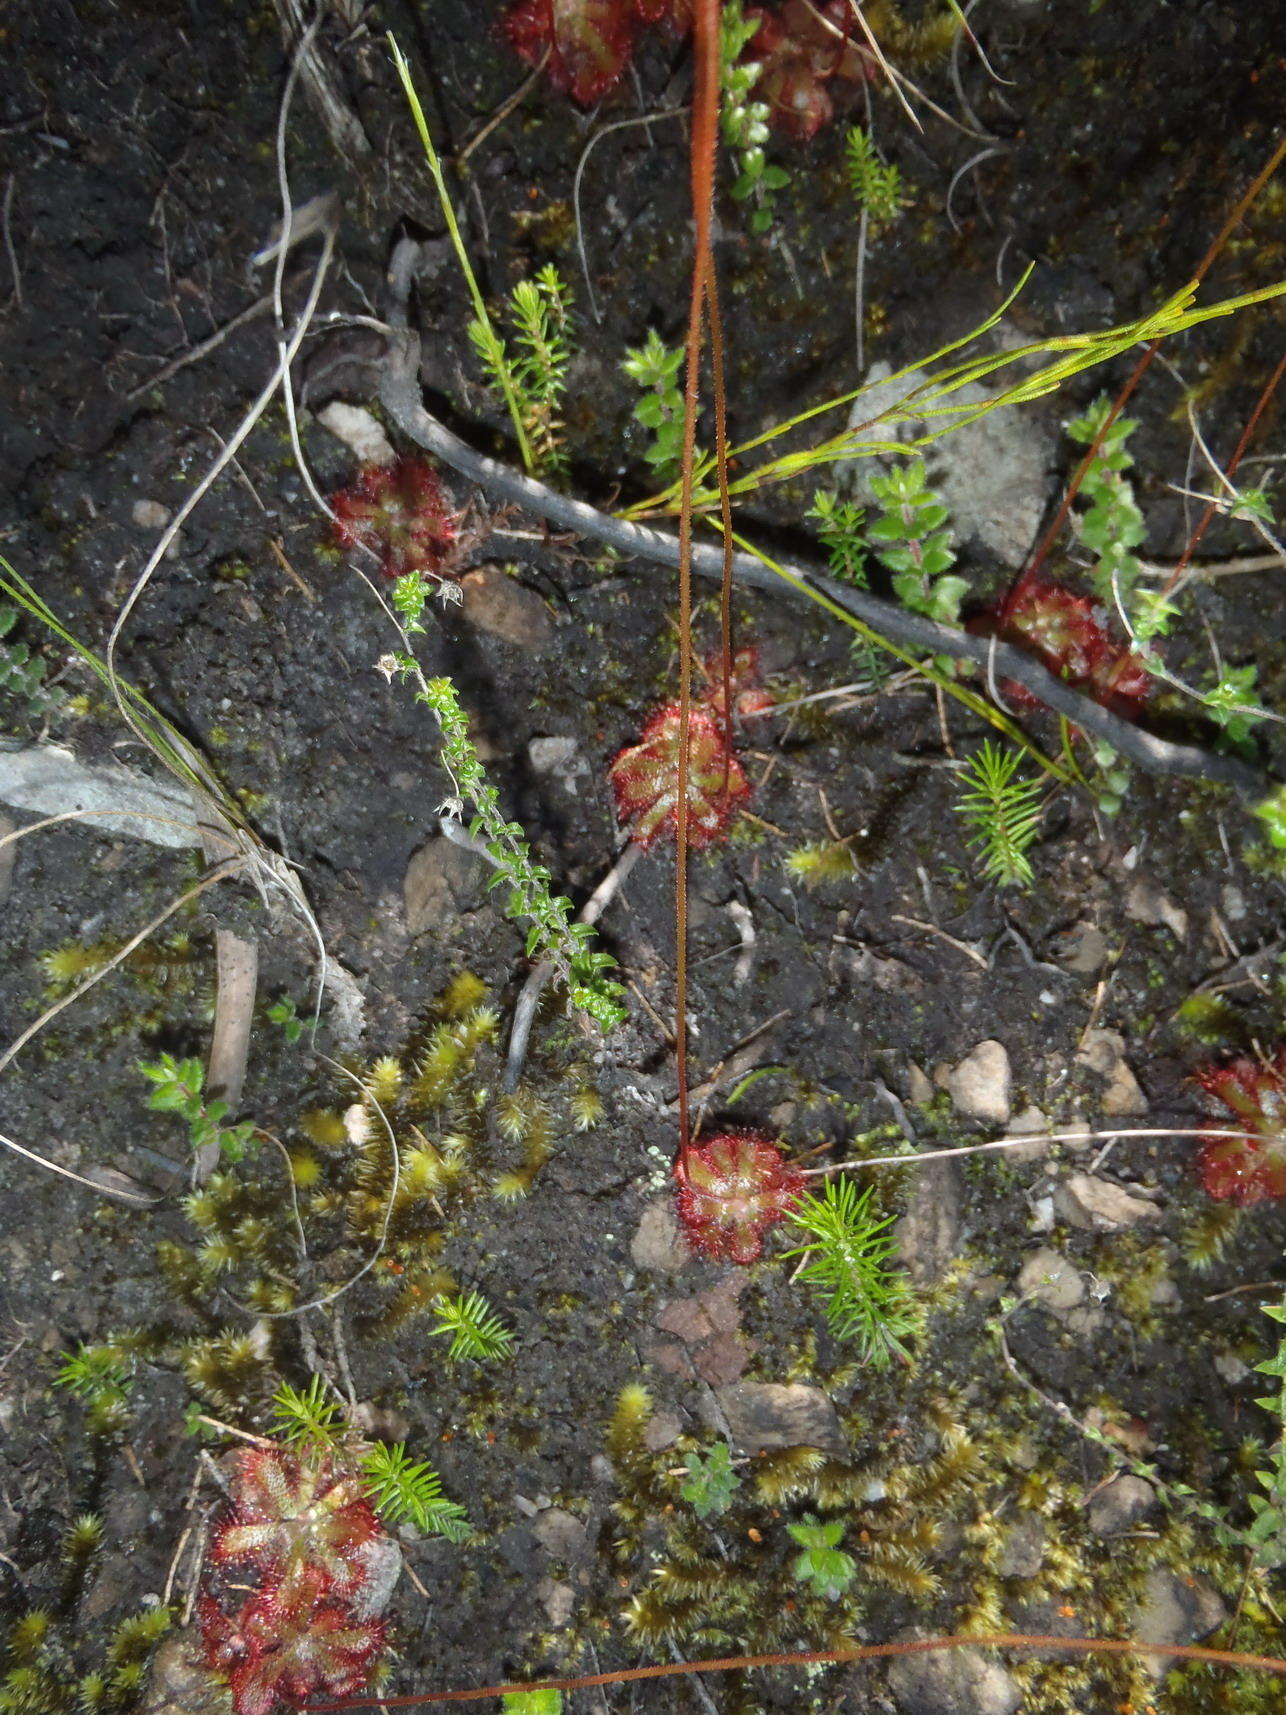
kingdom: Plantae
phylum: Tracheophyta
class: Magnoliopsida
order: Caryophyllales
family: Droseraceae
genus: Drosera
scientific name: Drosera aliciae
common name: Alice sundew
